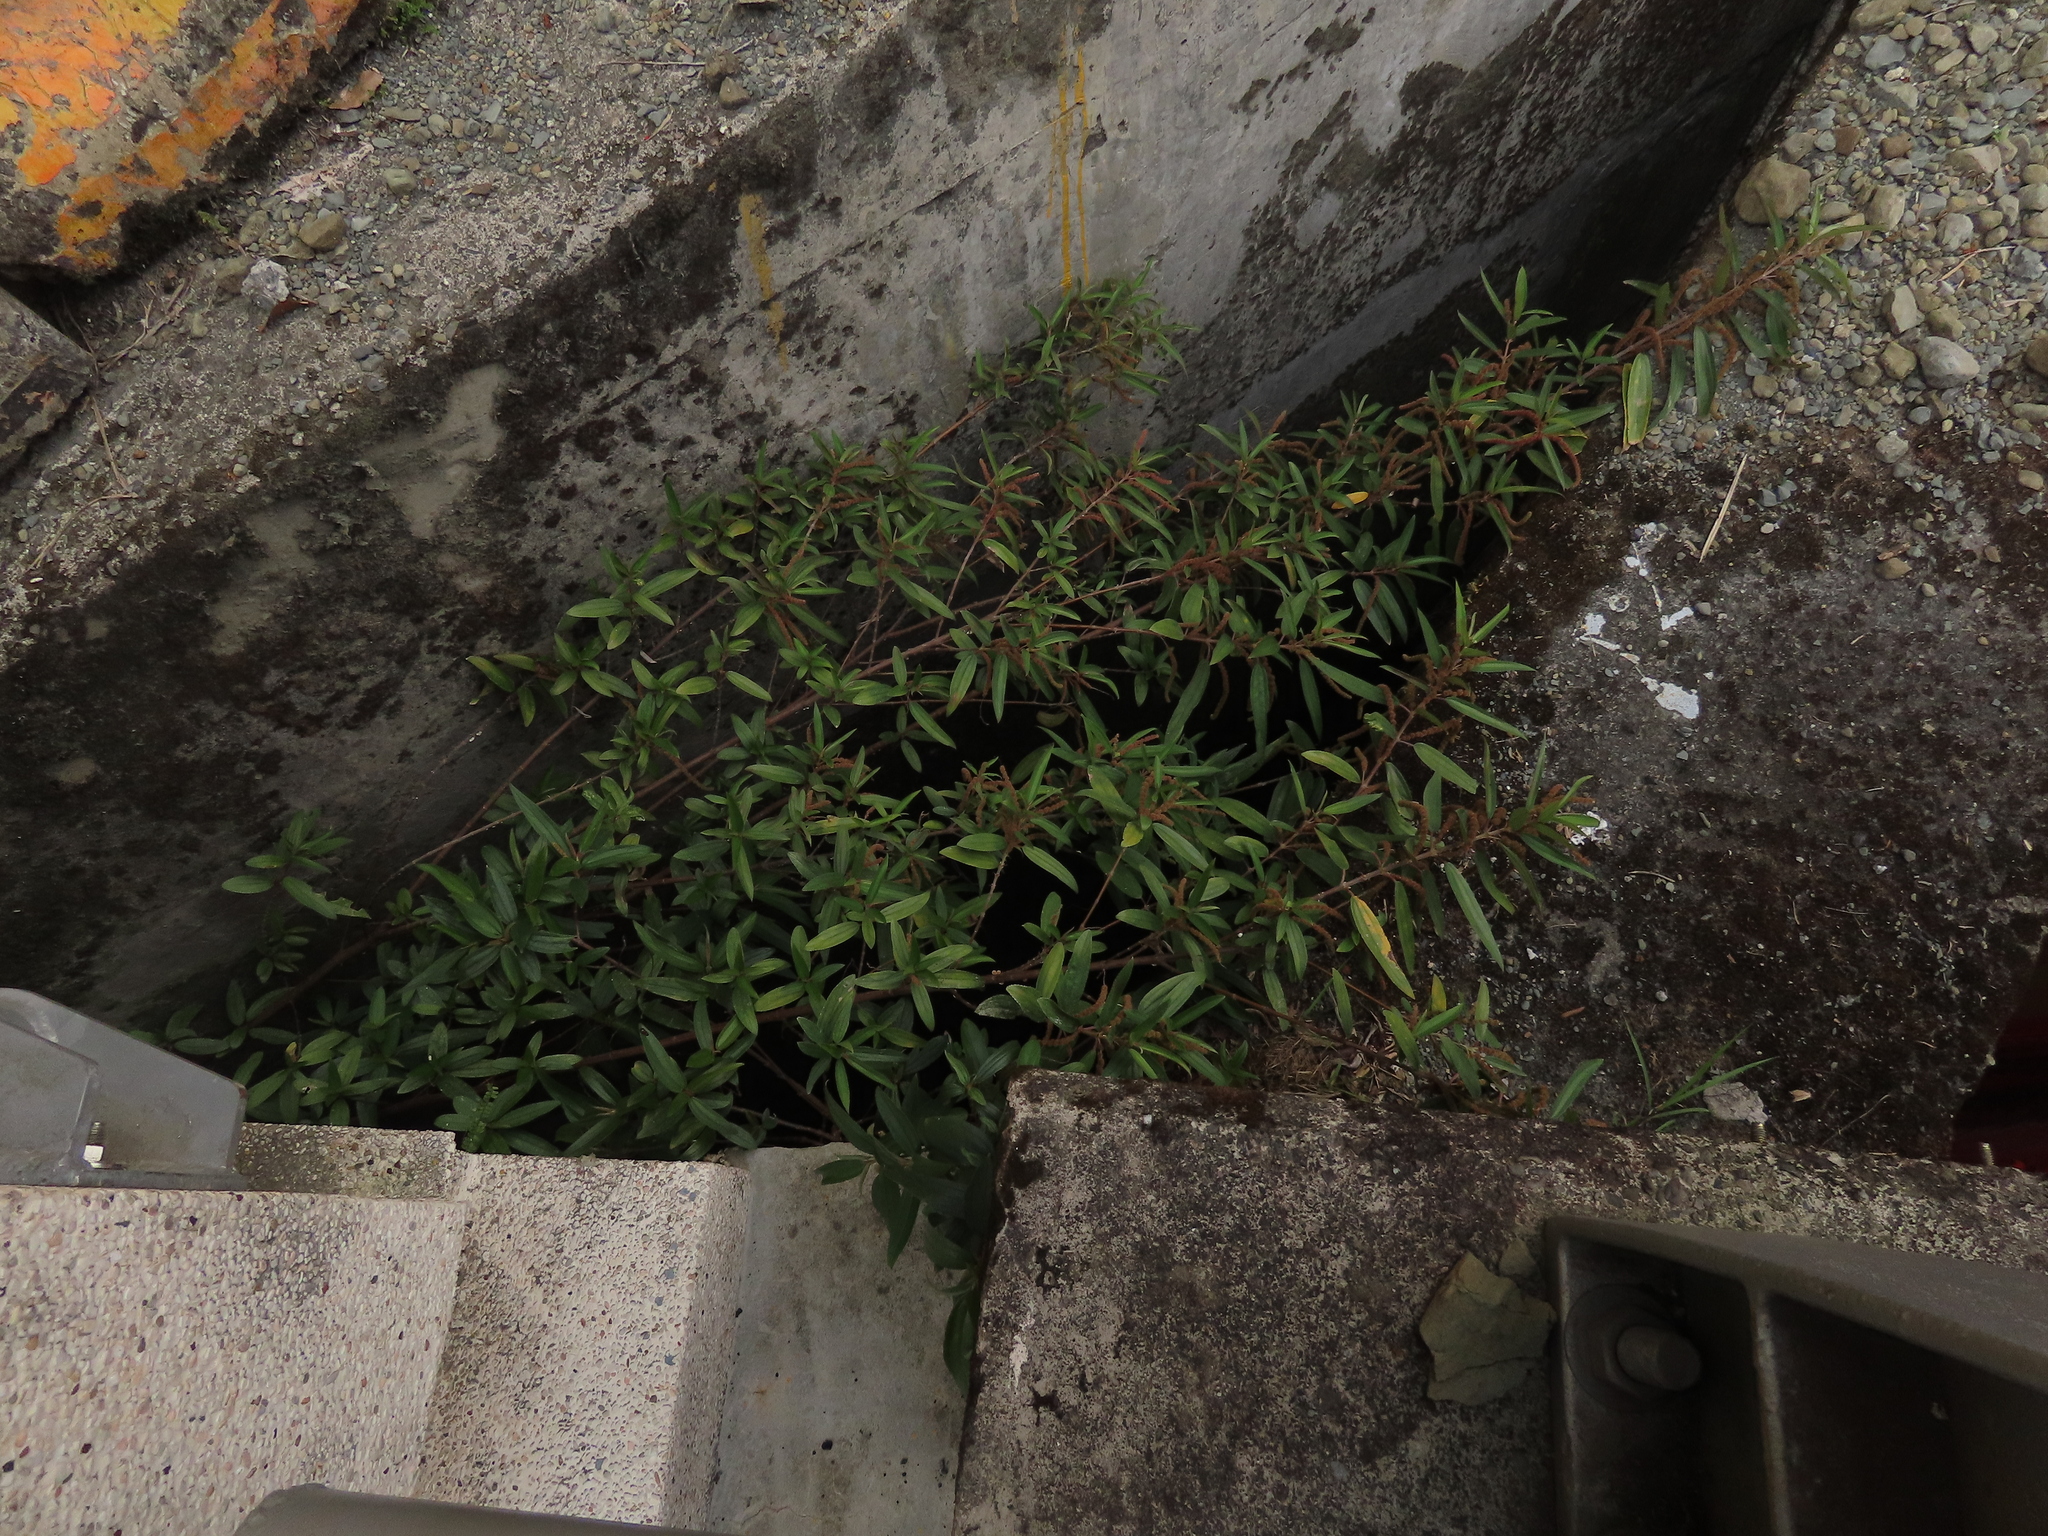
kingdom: Plantae
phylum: Tracheophyta
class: Magnoliopsida
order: Rosales
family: Urticaceae
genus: Boehmeria
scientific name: Boehmeria densiflora
